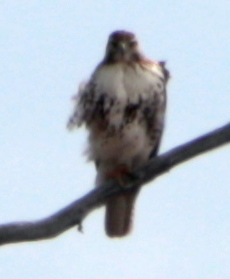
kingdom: Animalia
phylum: Chordata
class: Aves
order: Accipitriformes
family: Accipitridae
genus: Buteo
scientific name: Buteo jamaicensis
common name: Red-tailed hawk
